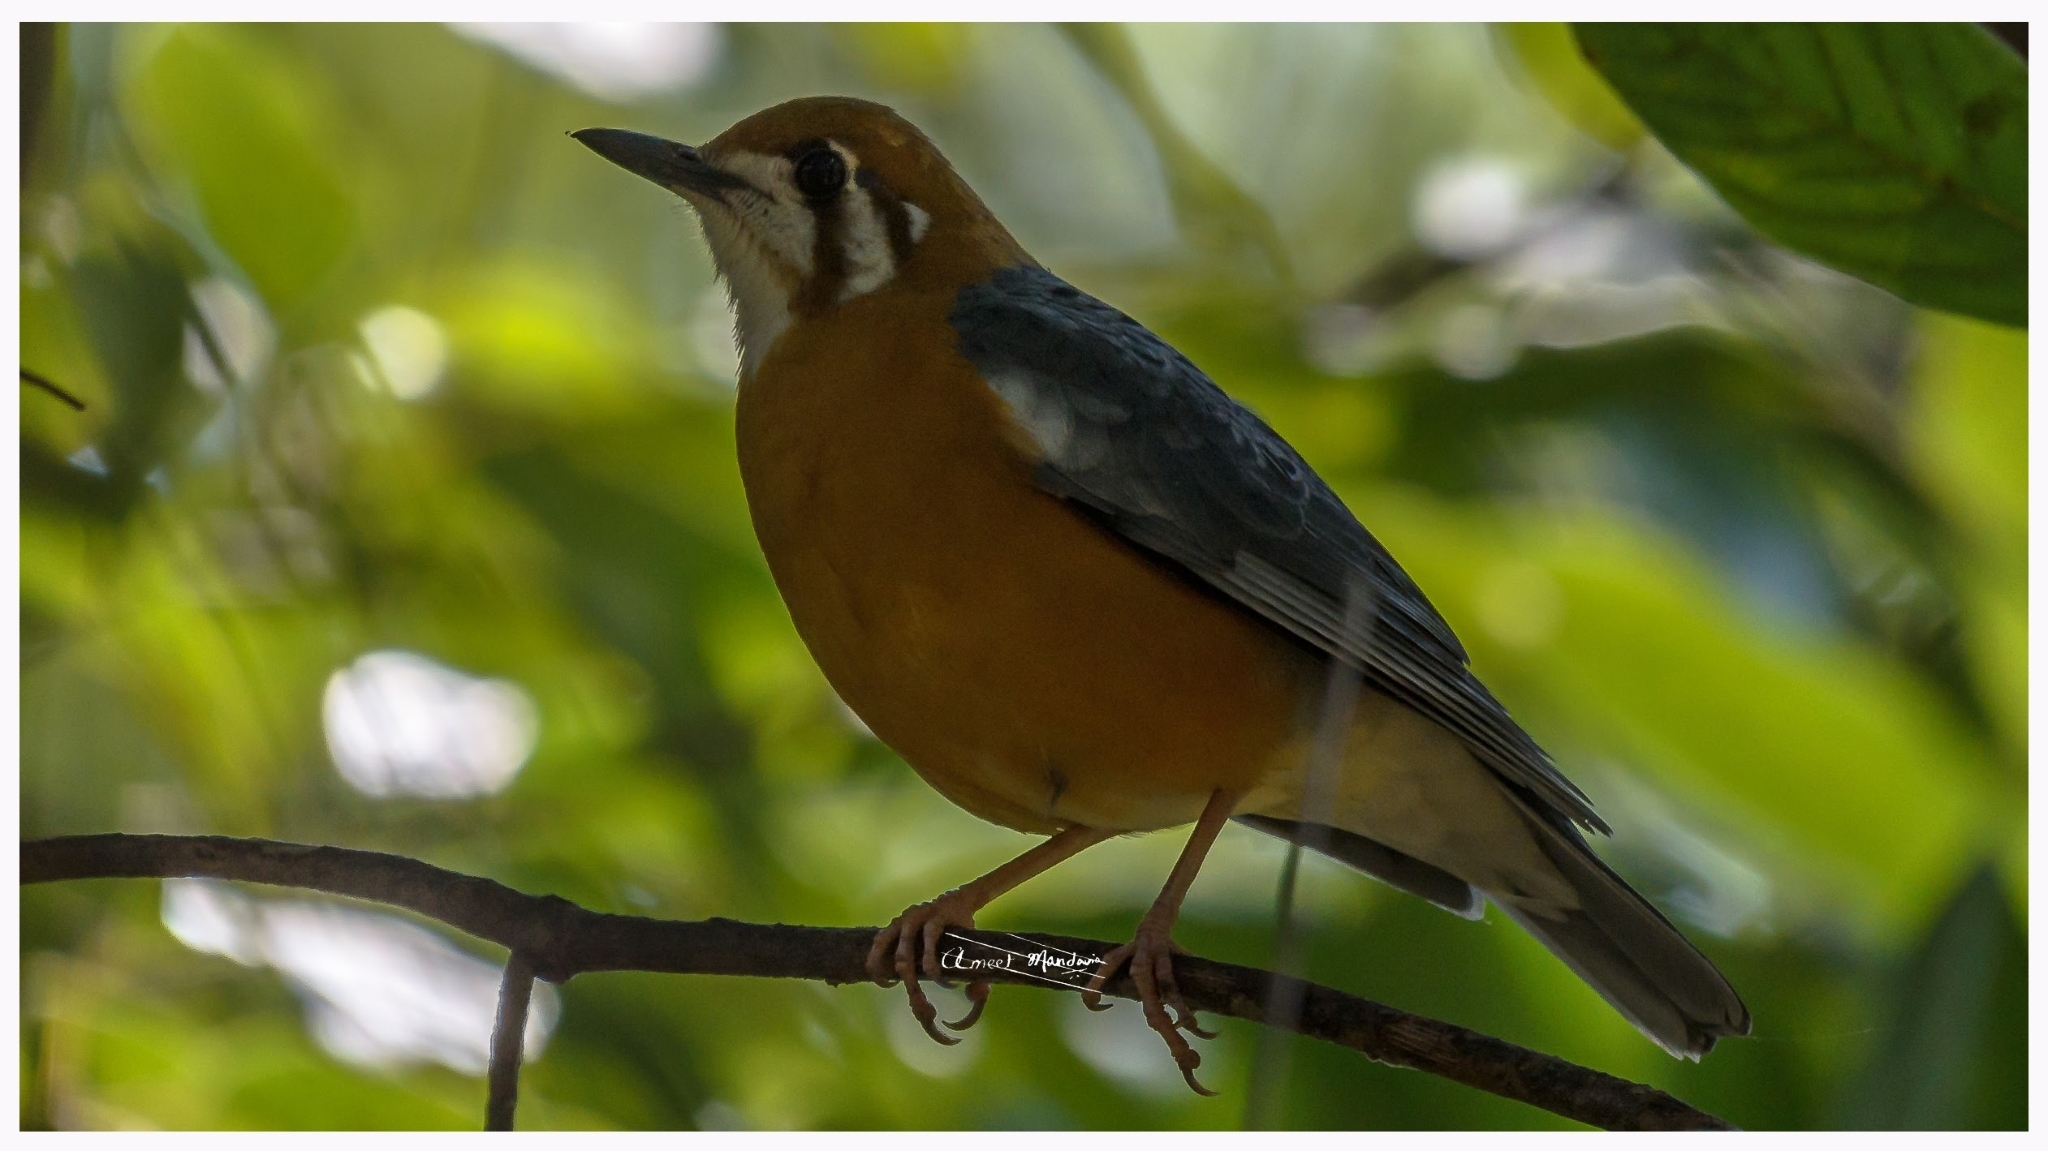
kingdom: Animalia
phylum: Chordata
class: Aves
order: Passeriformes
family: Turdidae
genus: Geokichla
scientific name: Geokichla citrina
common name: Orange-headed thrush
